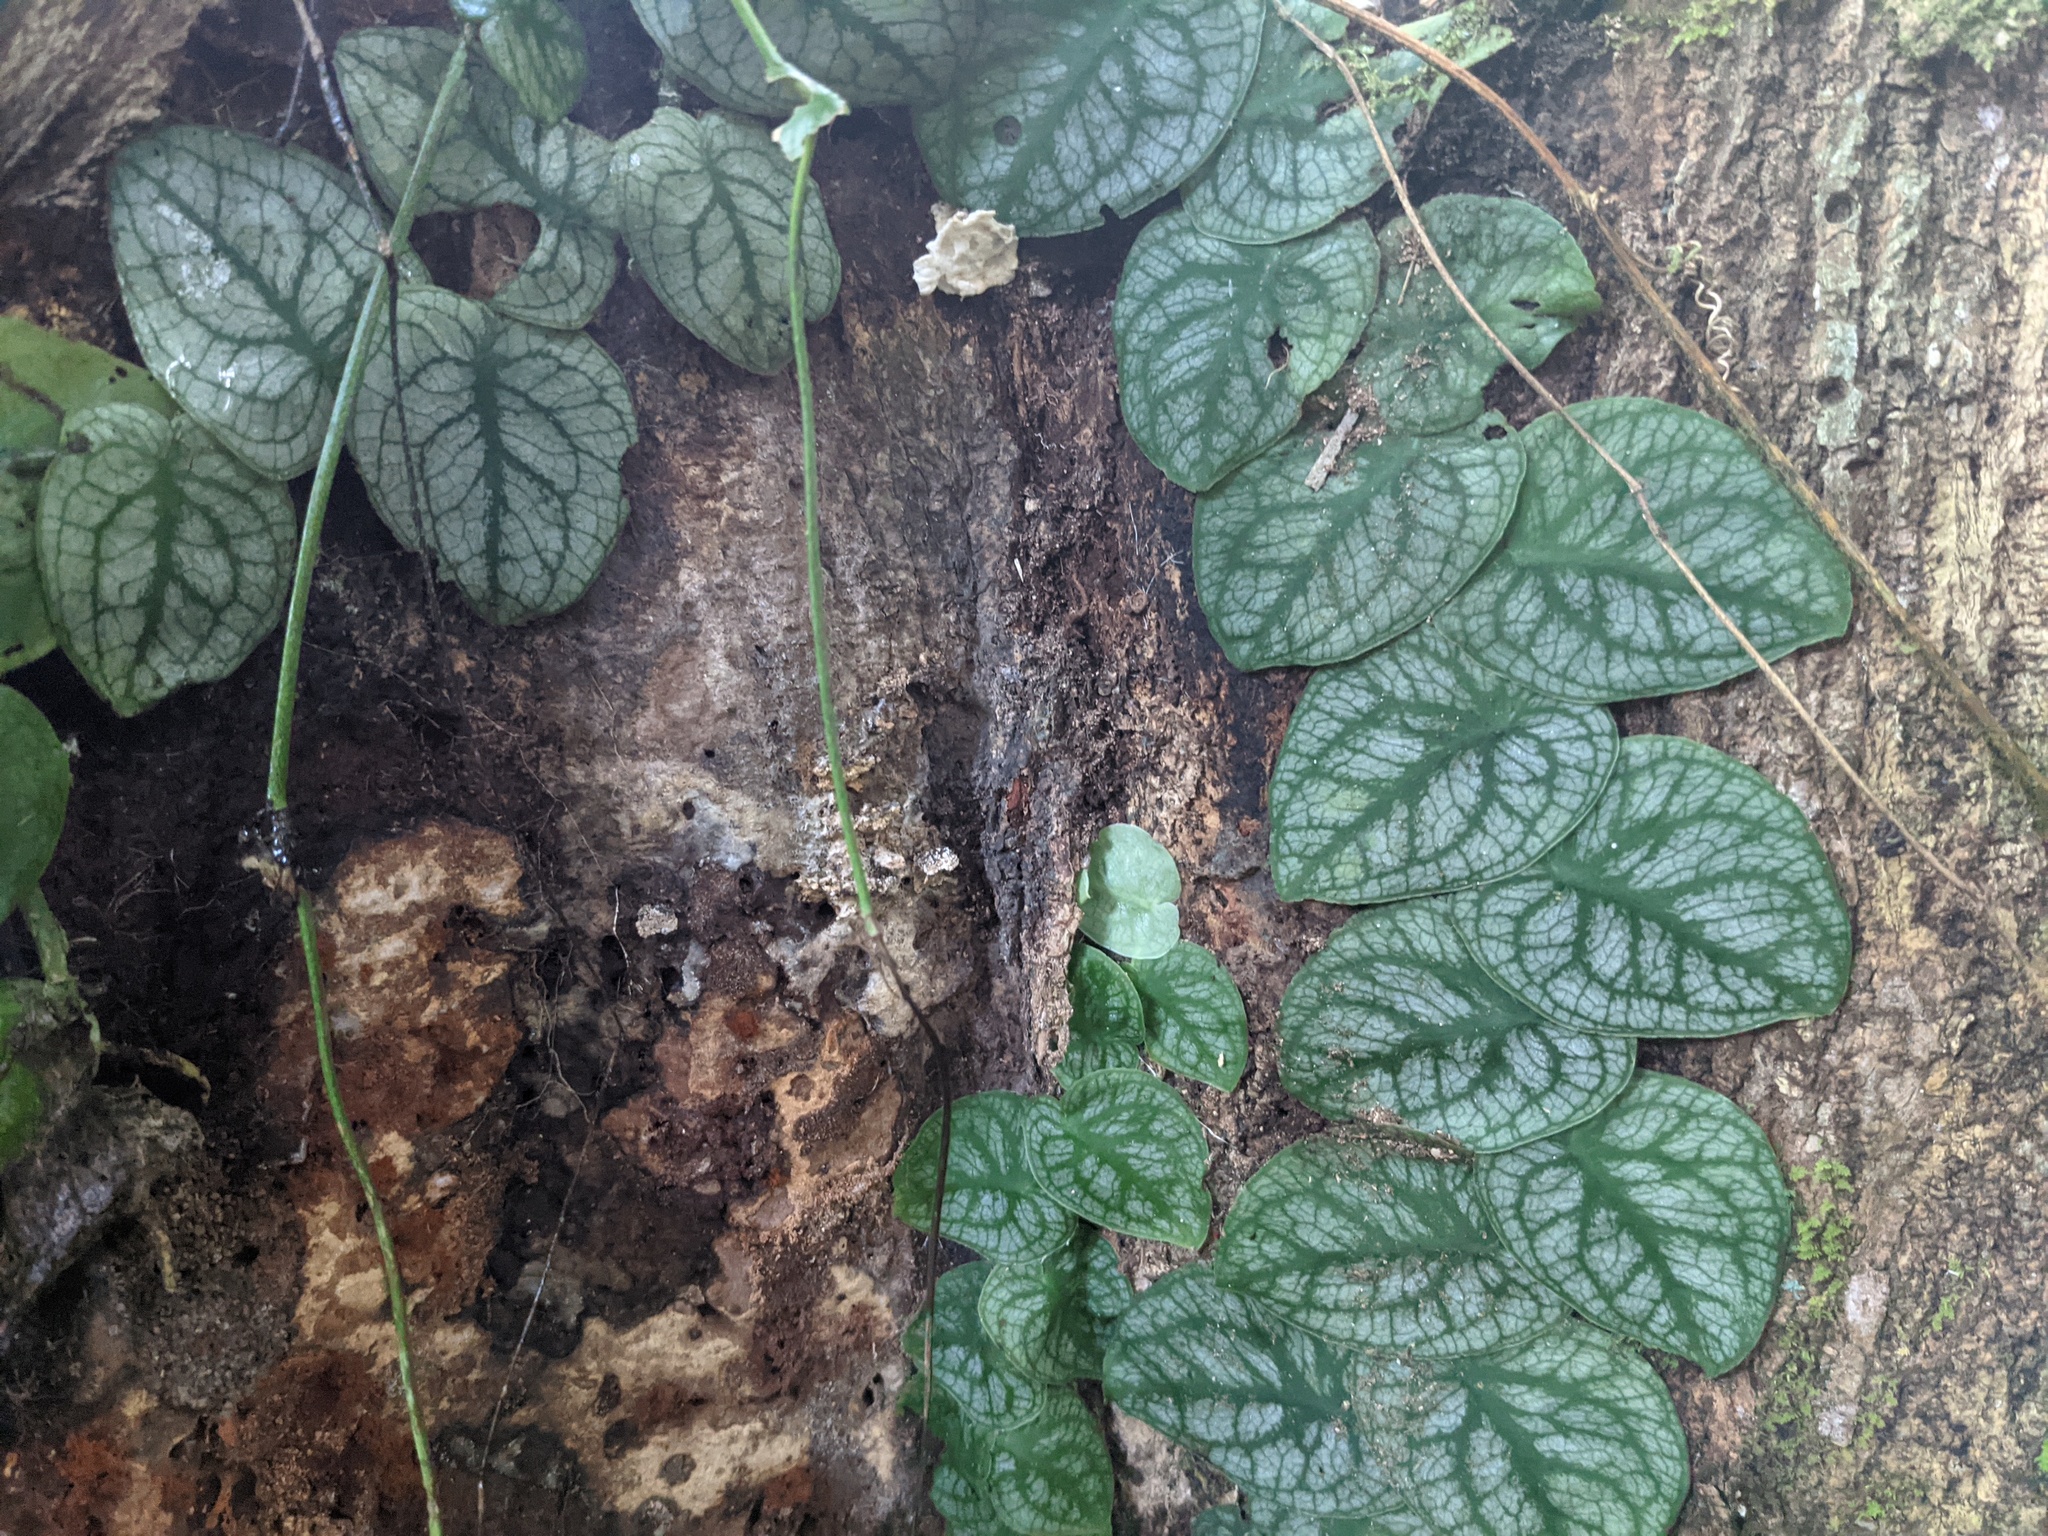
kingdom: Plantae
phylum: Tracheophyta
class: Liliopsida
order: Alismatales
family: Araceae
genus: Monstera
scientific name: Monstera dubia
